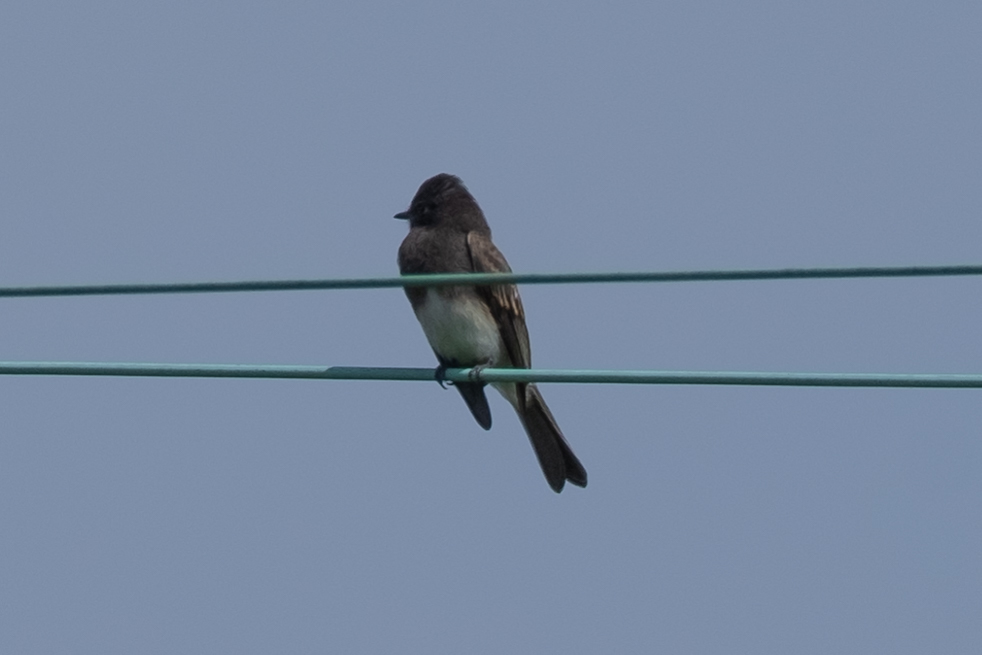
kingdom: Animalia
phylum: Chordata
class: Aves
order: Passeriformes
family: Tyrannidae
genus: Sayornis
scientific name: Sayornis nigricans
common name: Black phoebe
